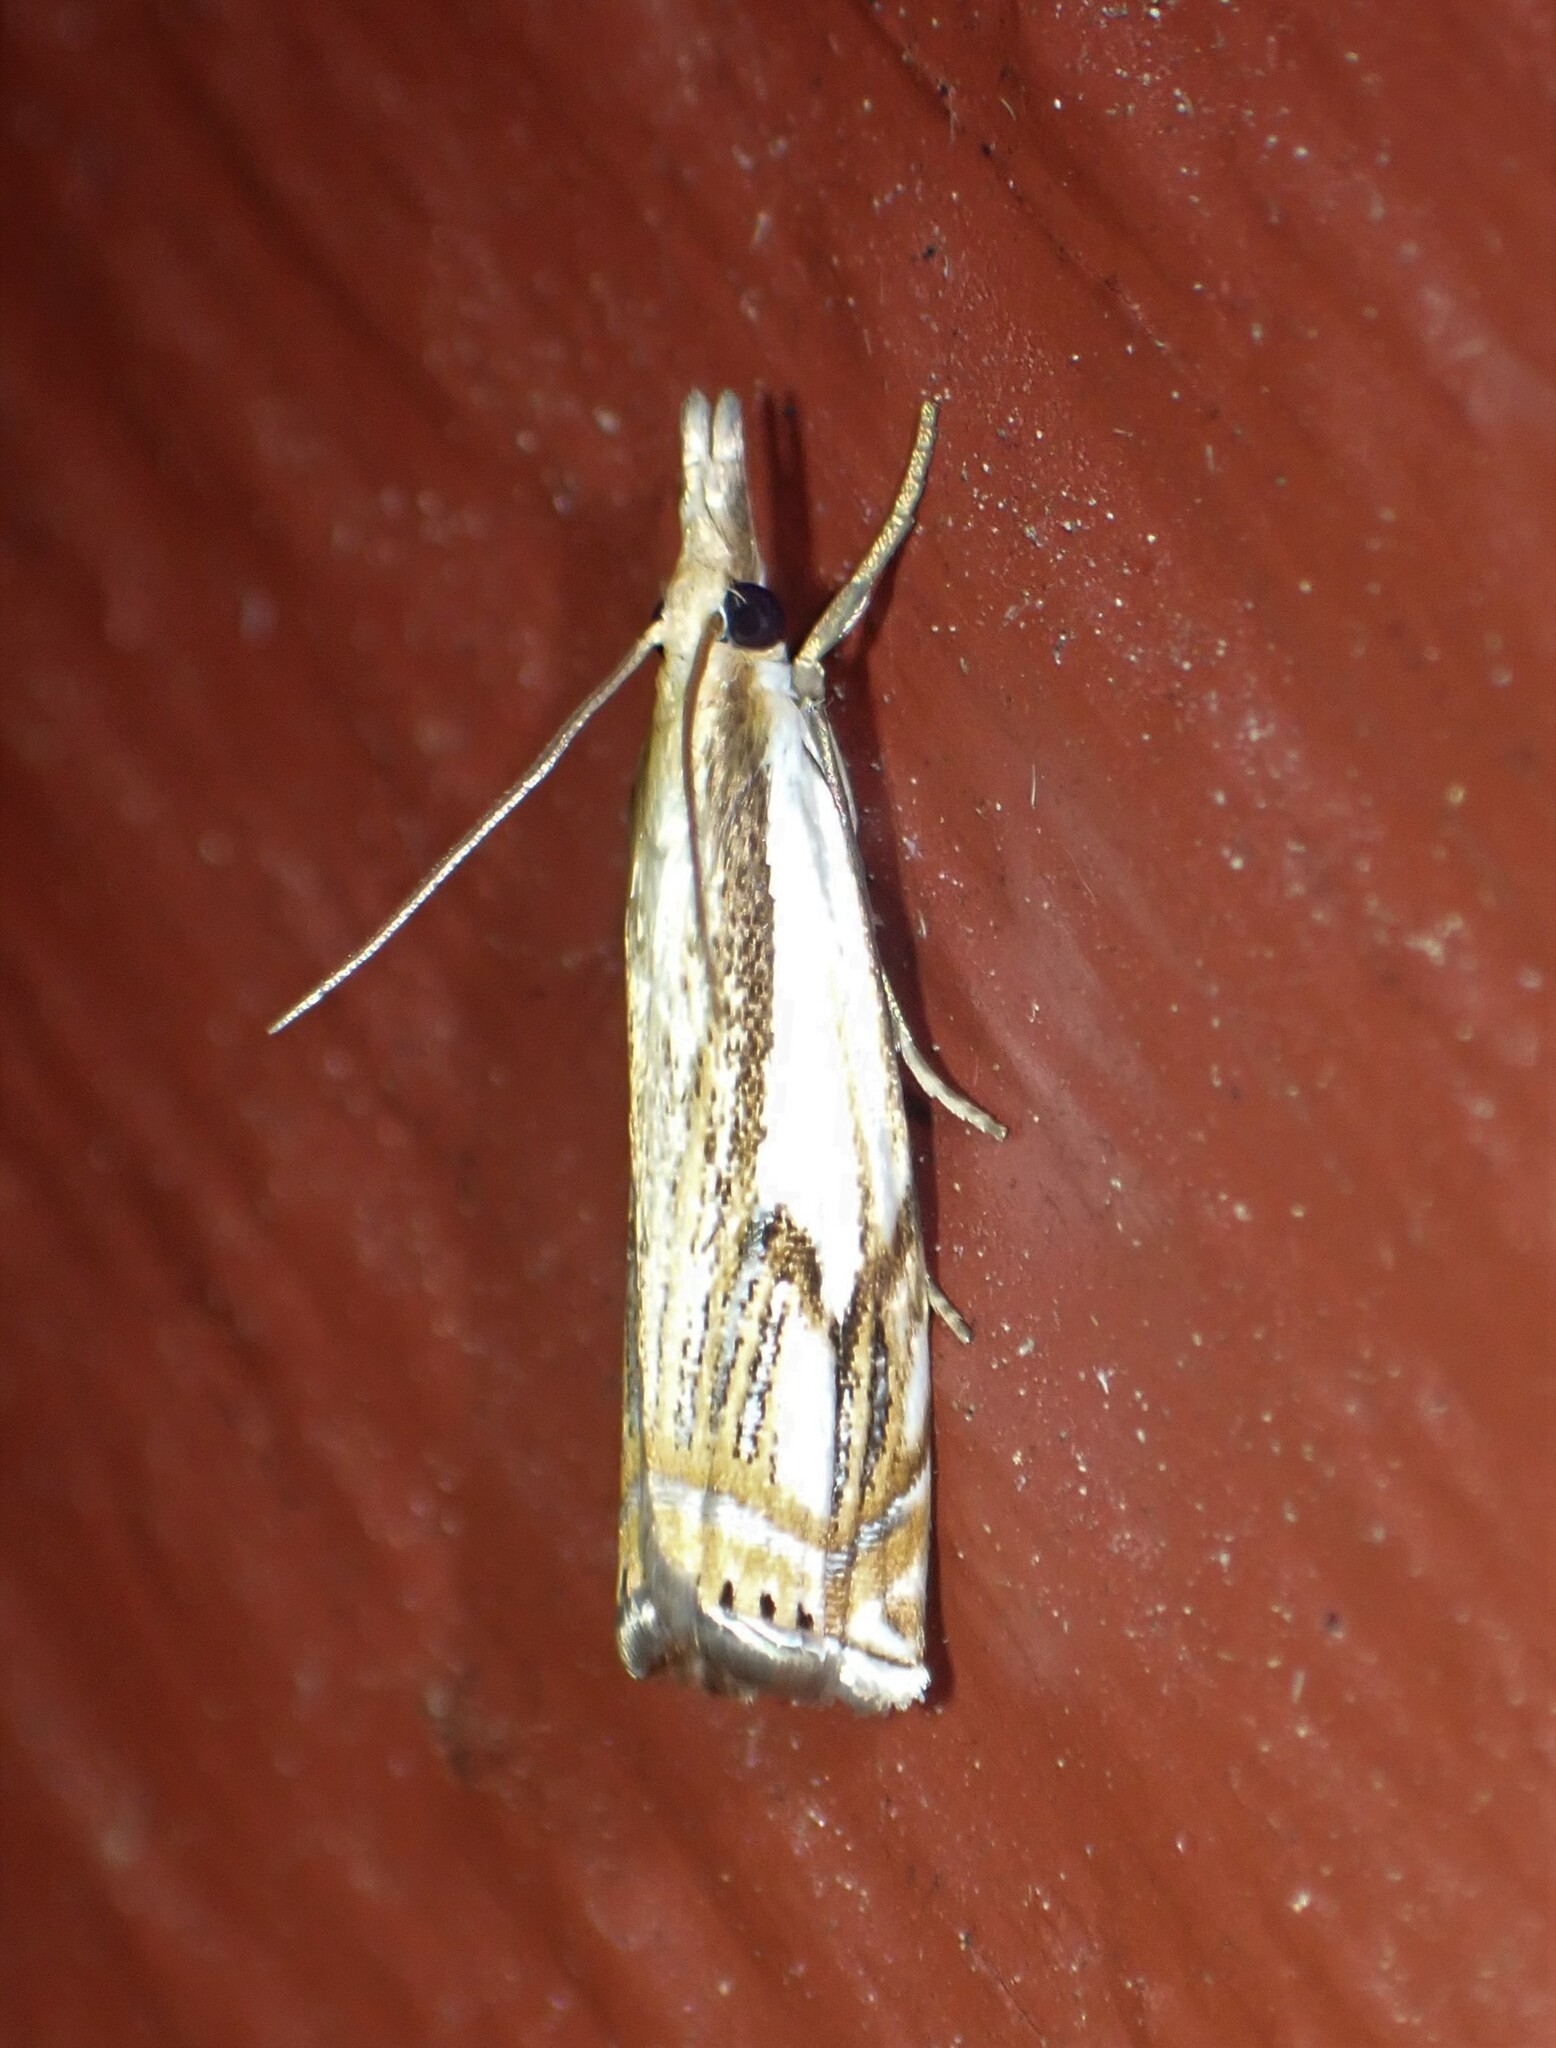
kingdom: Animalia
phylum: Arthropoda
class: Insecta
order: Lepidoptera
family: Crambidae
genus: Crambus
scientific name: Crambus agitatellus
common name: Double-banded grass-veneer
